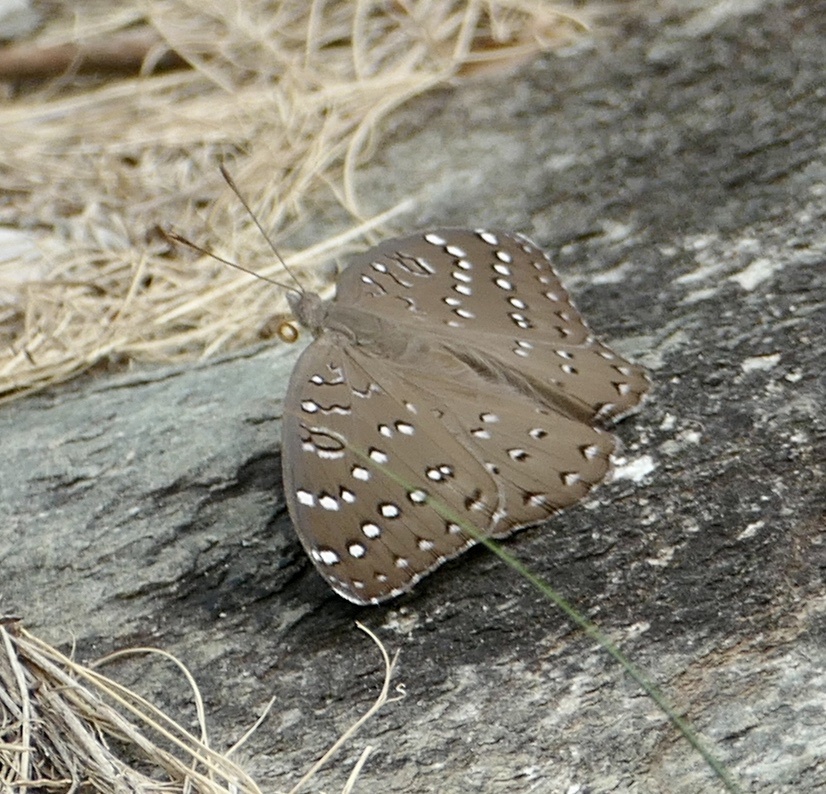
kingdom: Animalia
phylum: Arthropoda
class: Insecta
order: Lepidoptera
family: Nymphalidae
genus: Hamanumida
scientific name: Hamanumida daedalus
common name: Guinea-fowl butterfly
